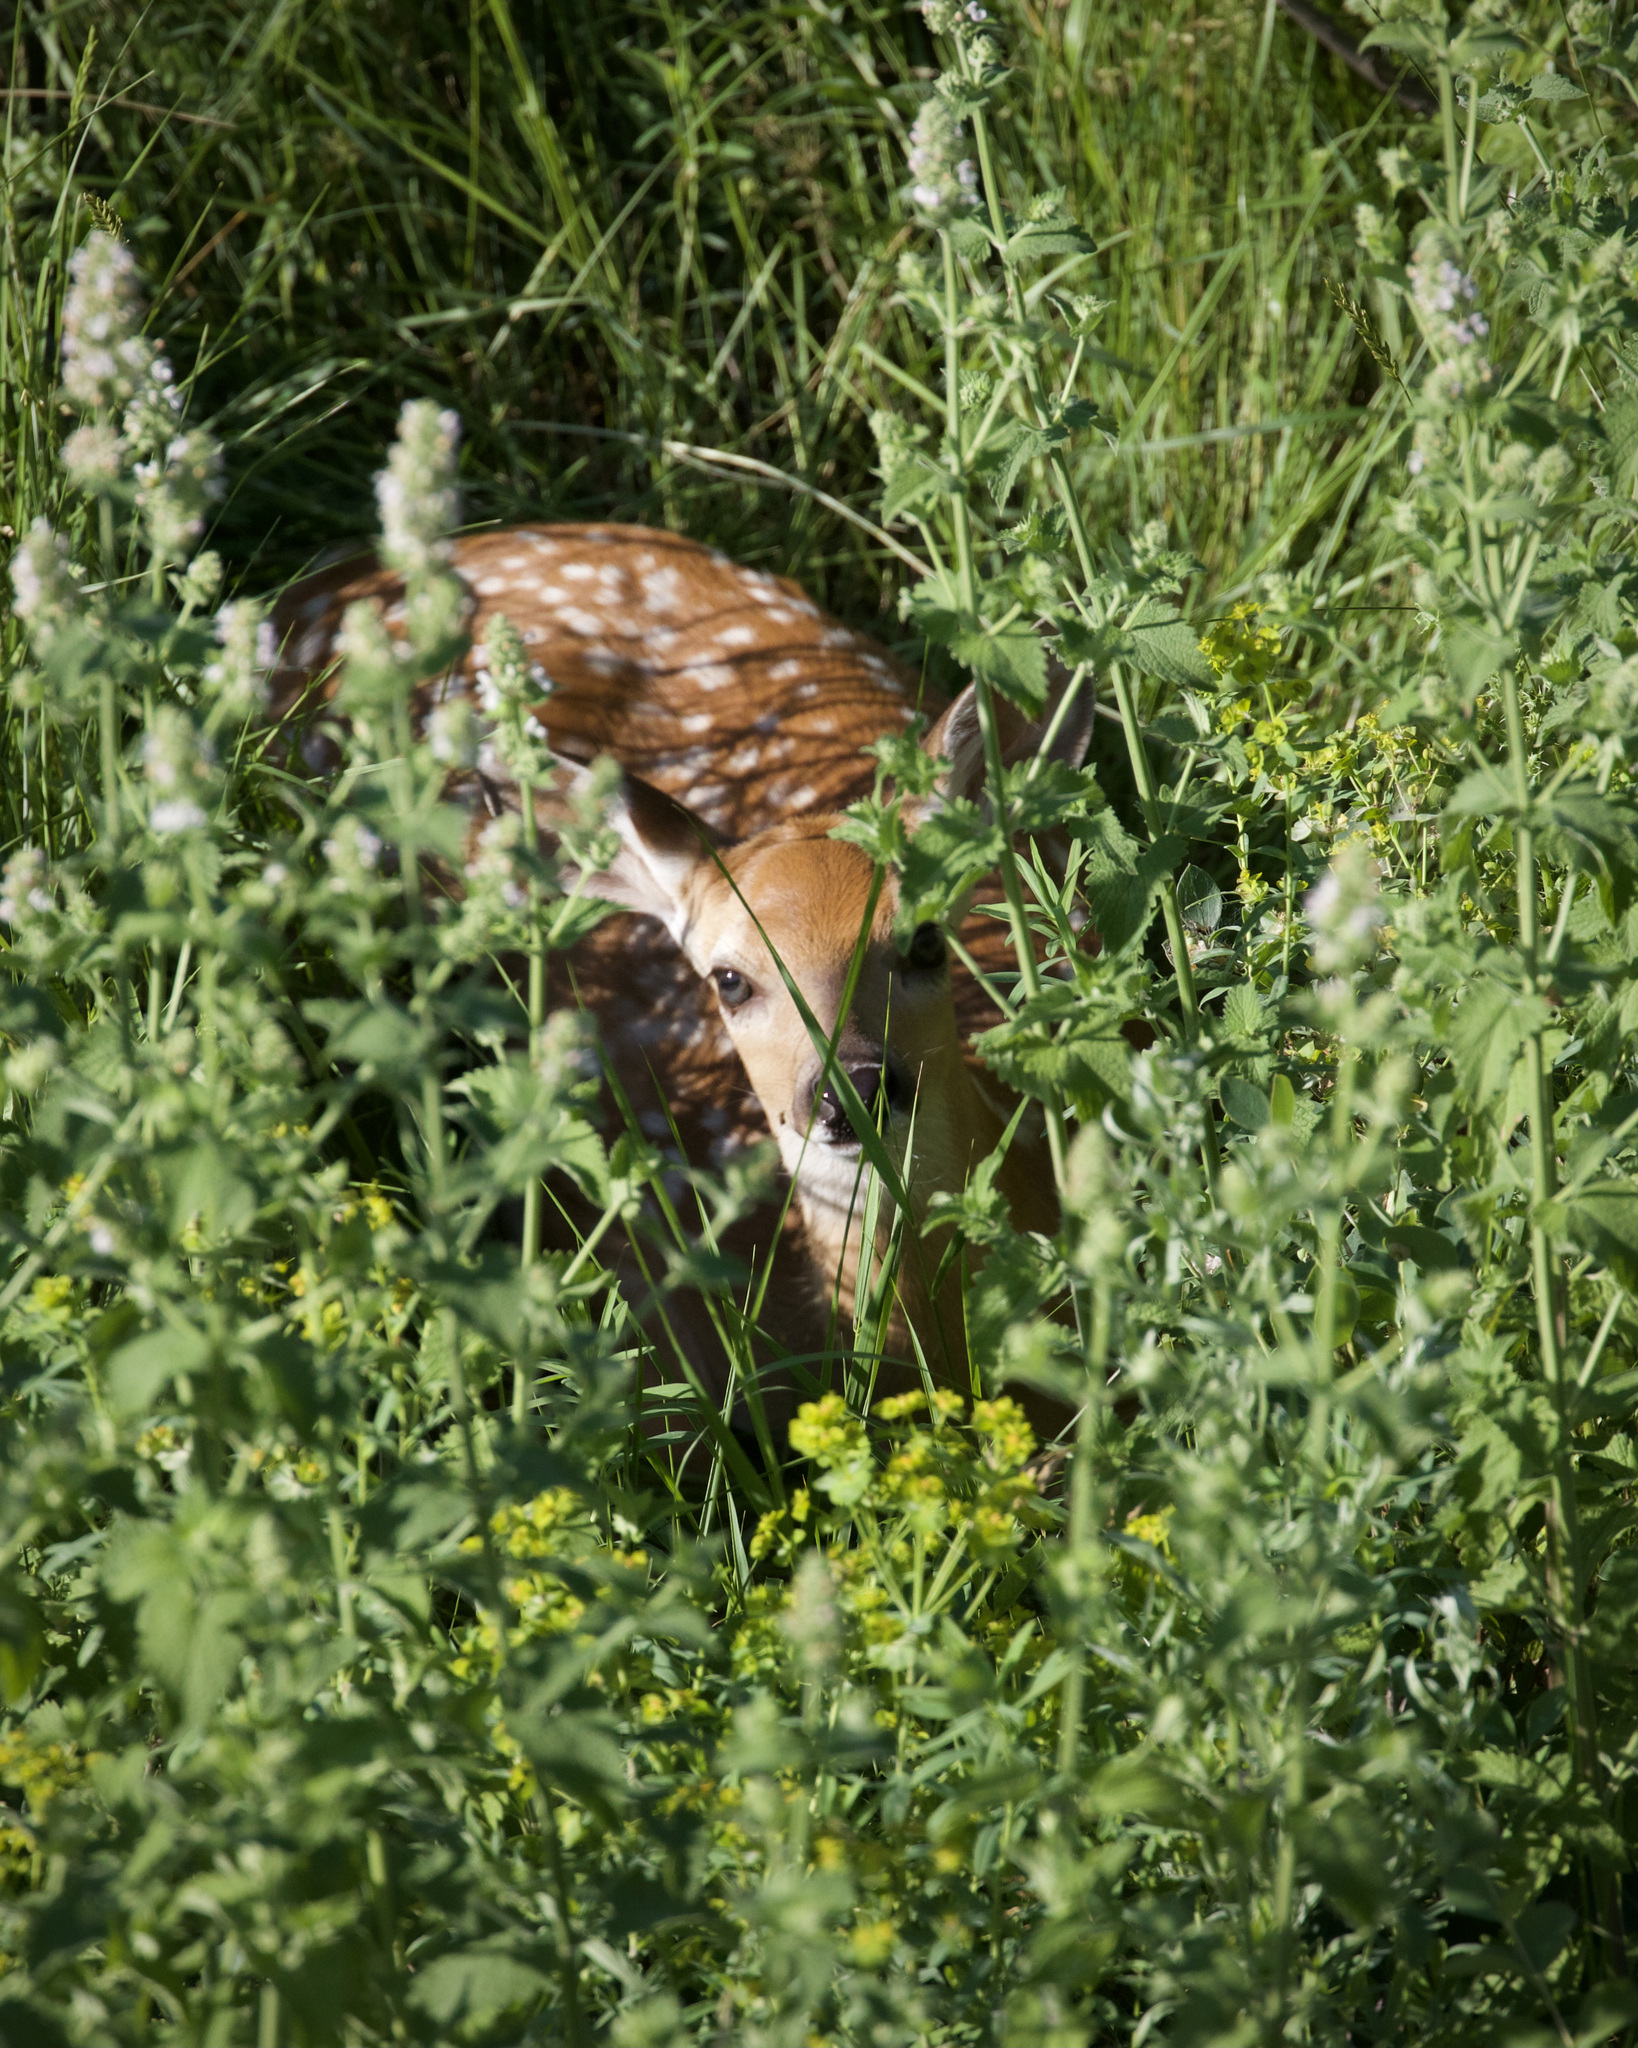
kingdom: Animalia
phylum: Chordata
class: Mammalia
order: Artiodactyla
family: Cervidae
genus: Odocoileus
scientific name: Odocoileus virginianus
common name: White-tailed deer
